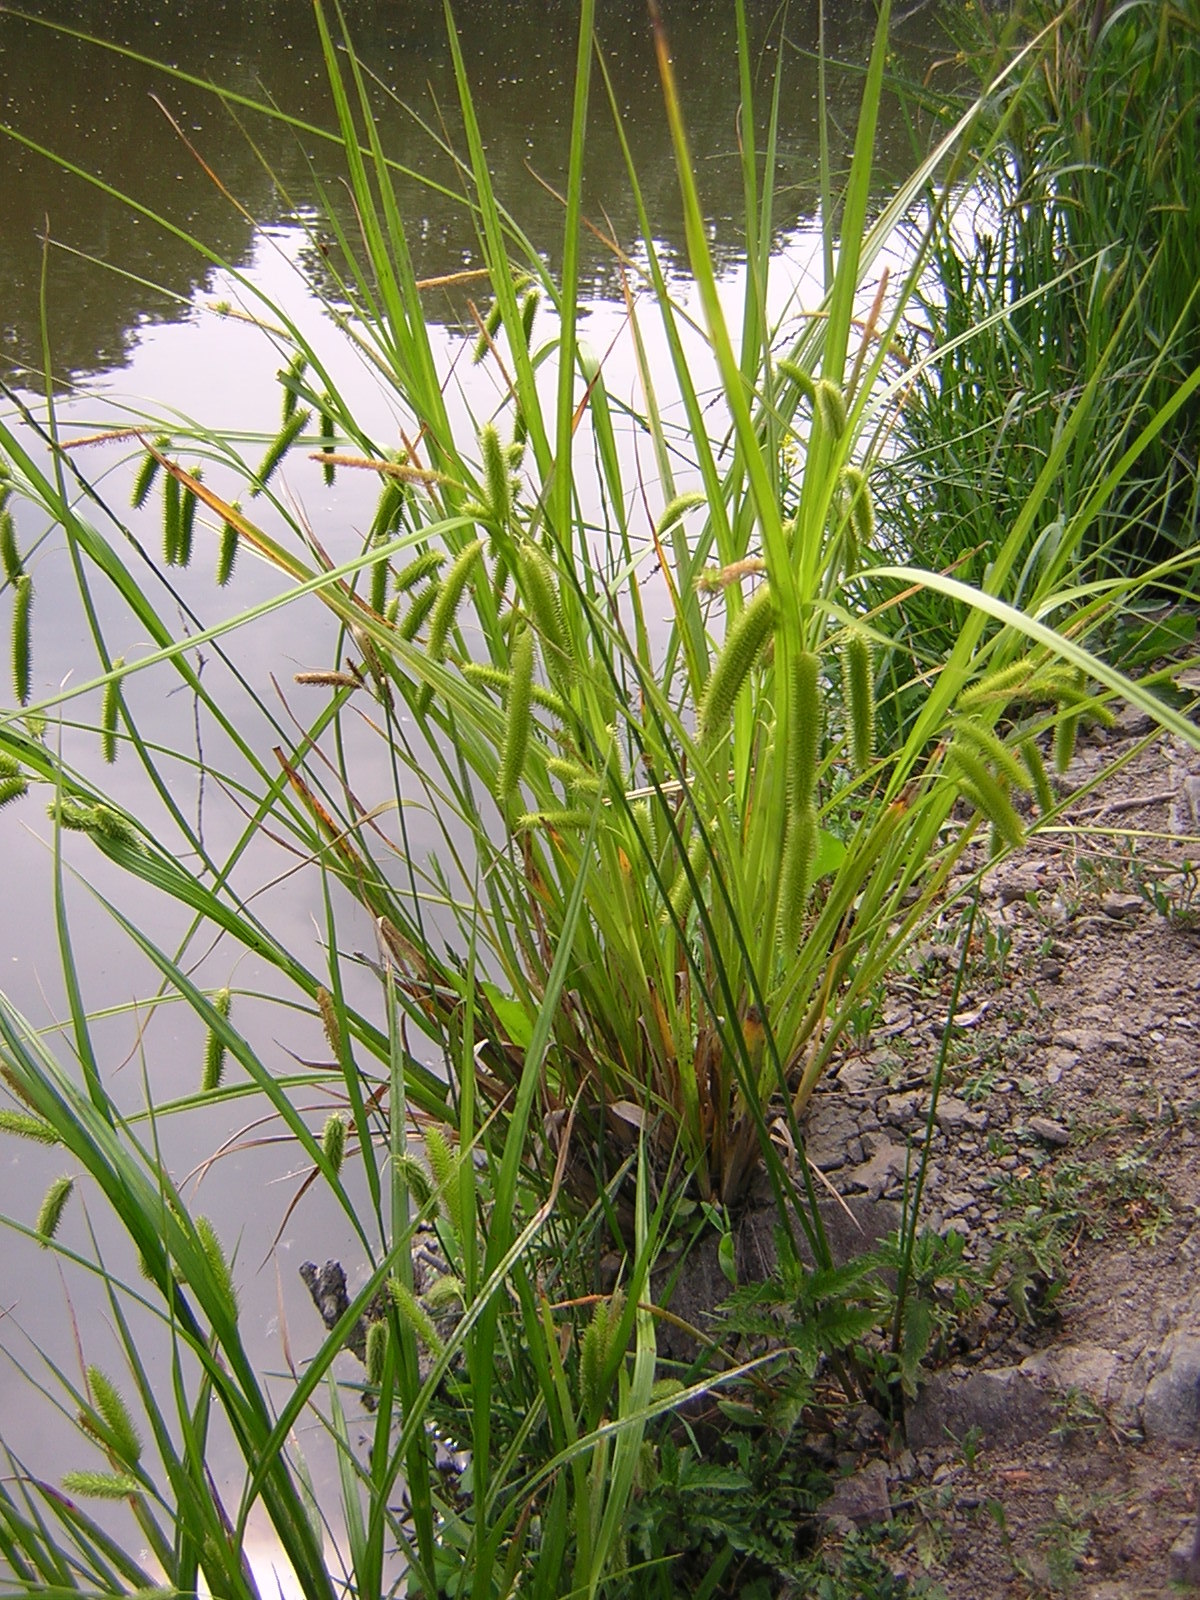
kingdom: Plantae
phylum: Tracheophyta
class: Liliopsida
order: Poales
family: Cyperaceae
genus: Carex
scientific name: Carex pseudocyperus
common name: Cyperus sedge
